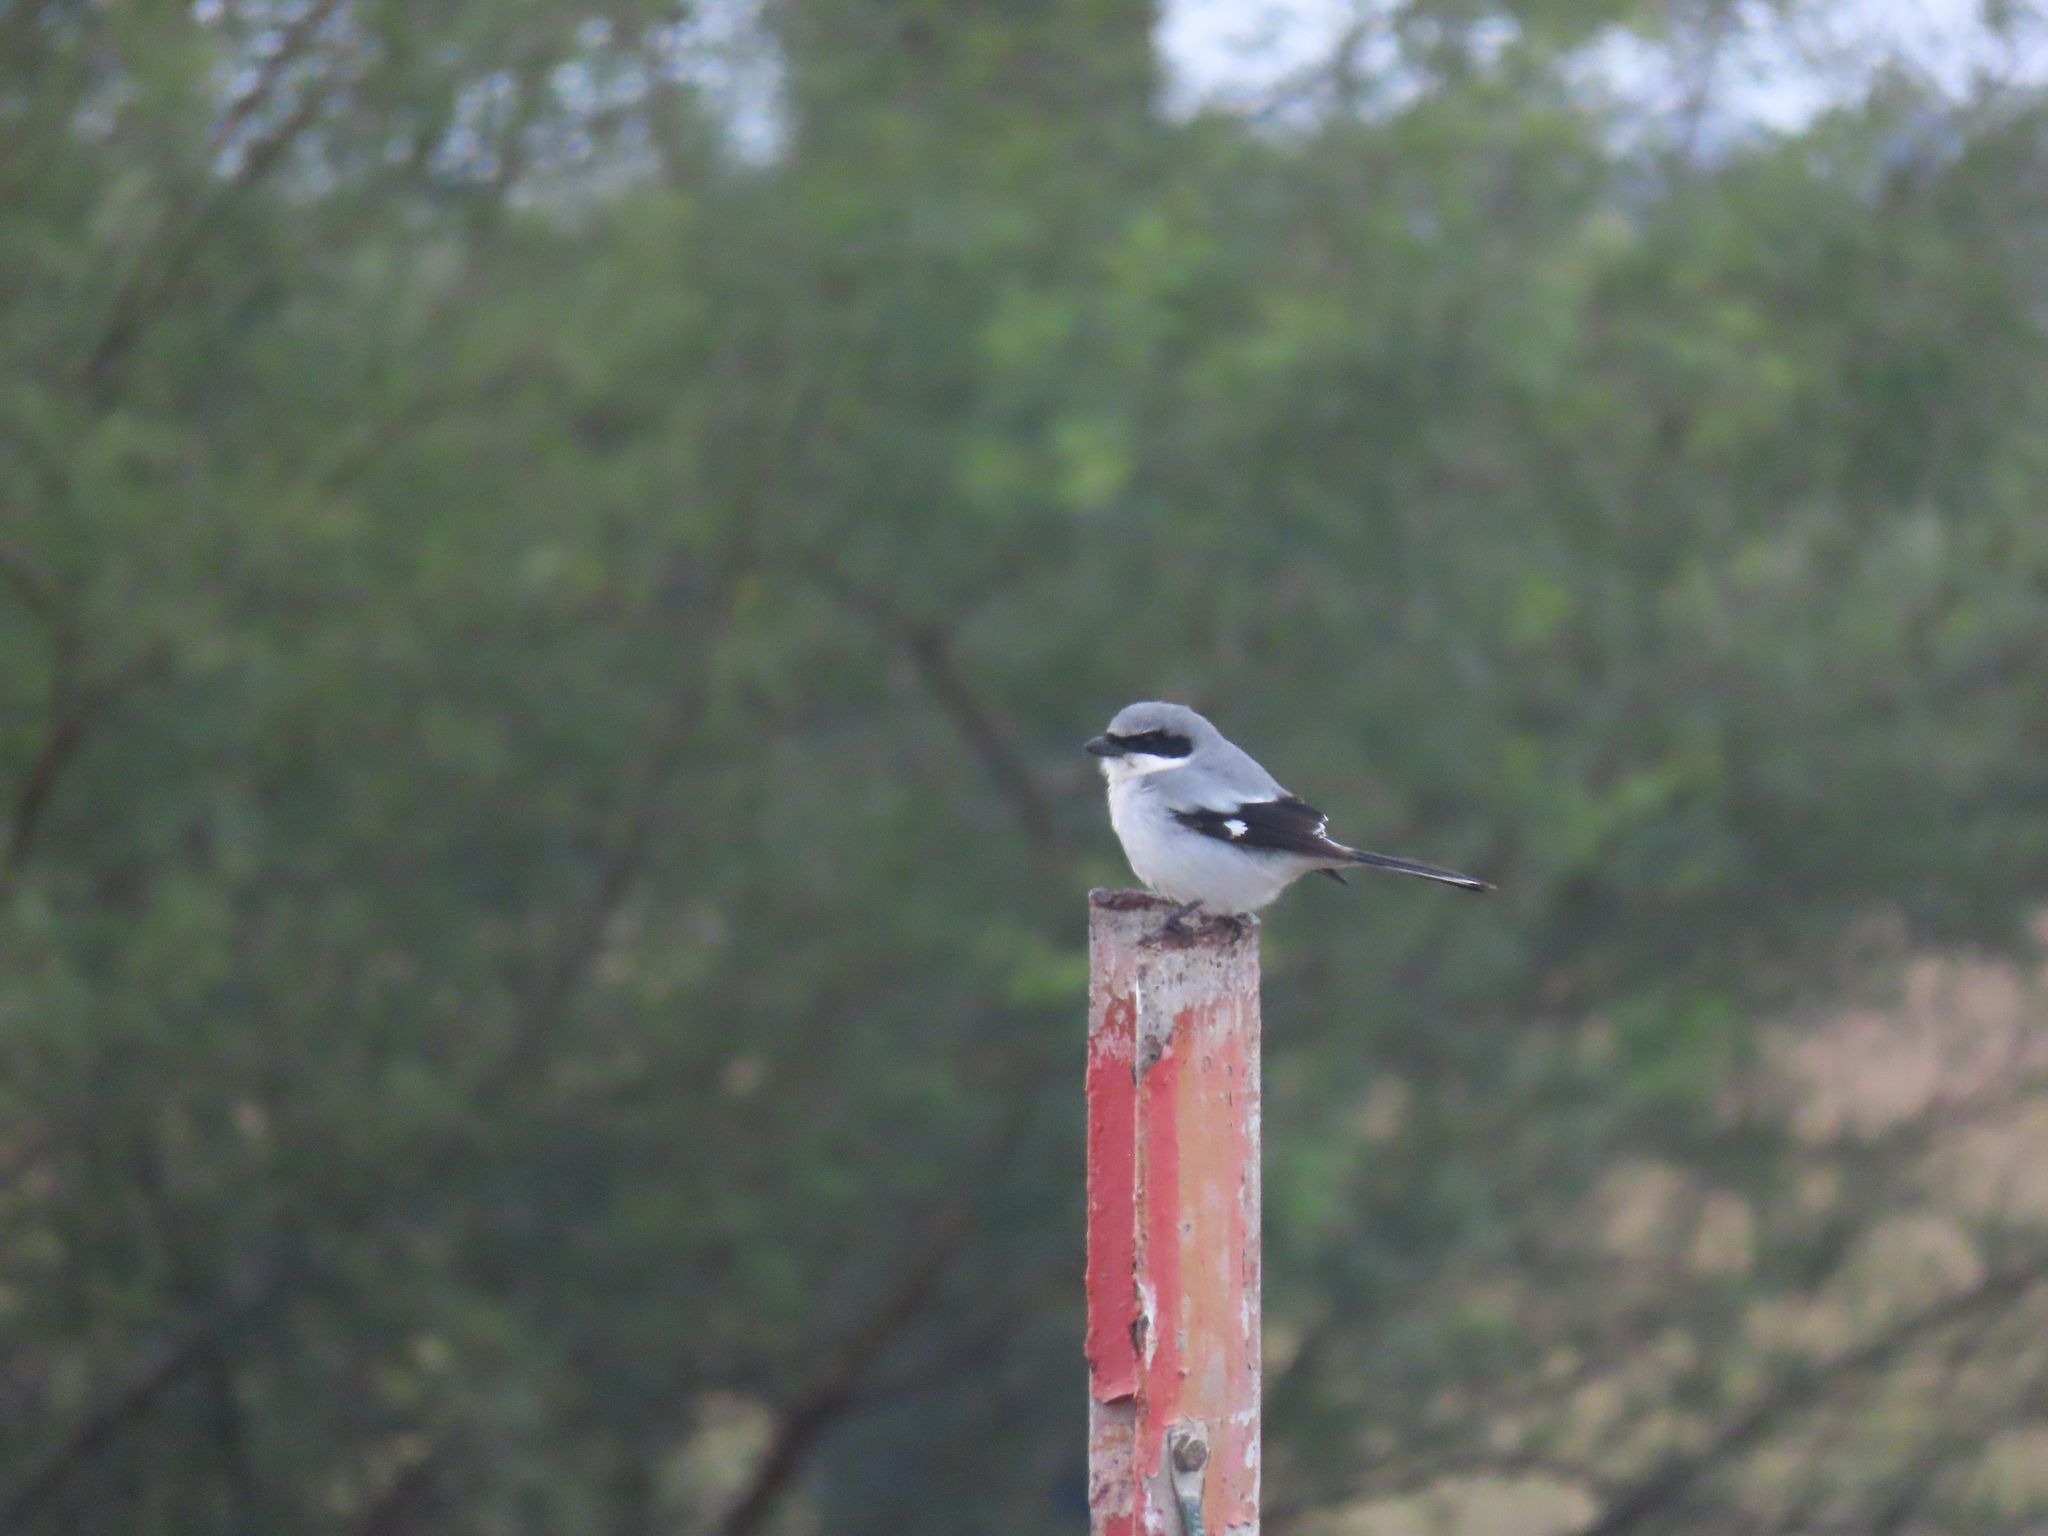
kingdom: Animalia
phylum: Chordata
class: Aves
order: Passeriformes
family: Laniidae
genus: Lanius
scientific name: Lanius ludovicianus
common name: Loggerhead shrike
